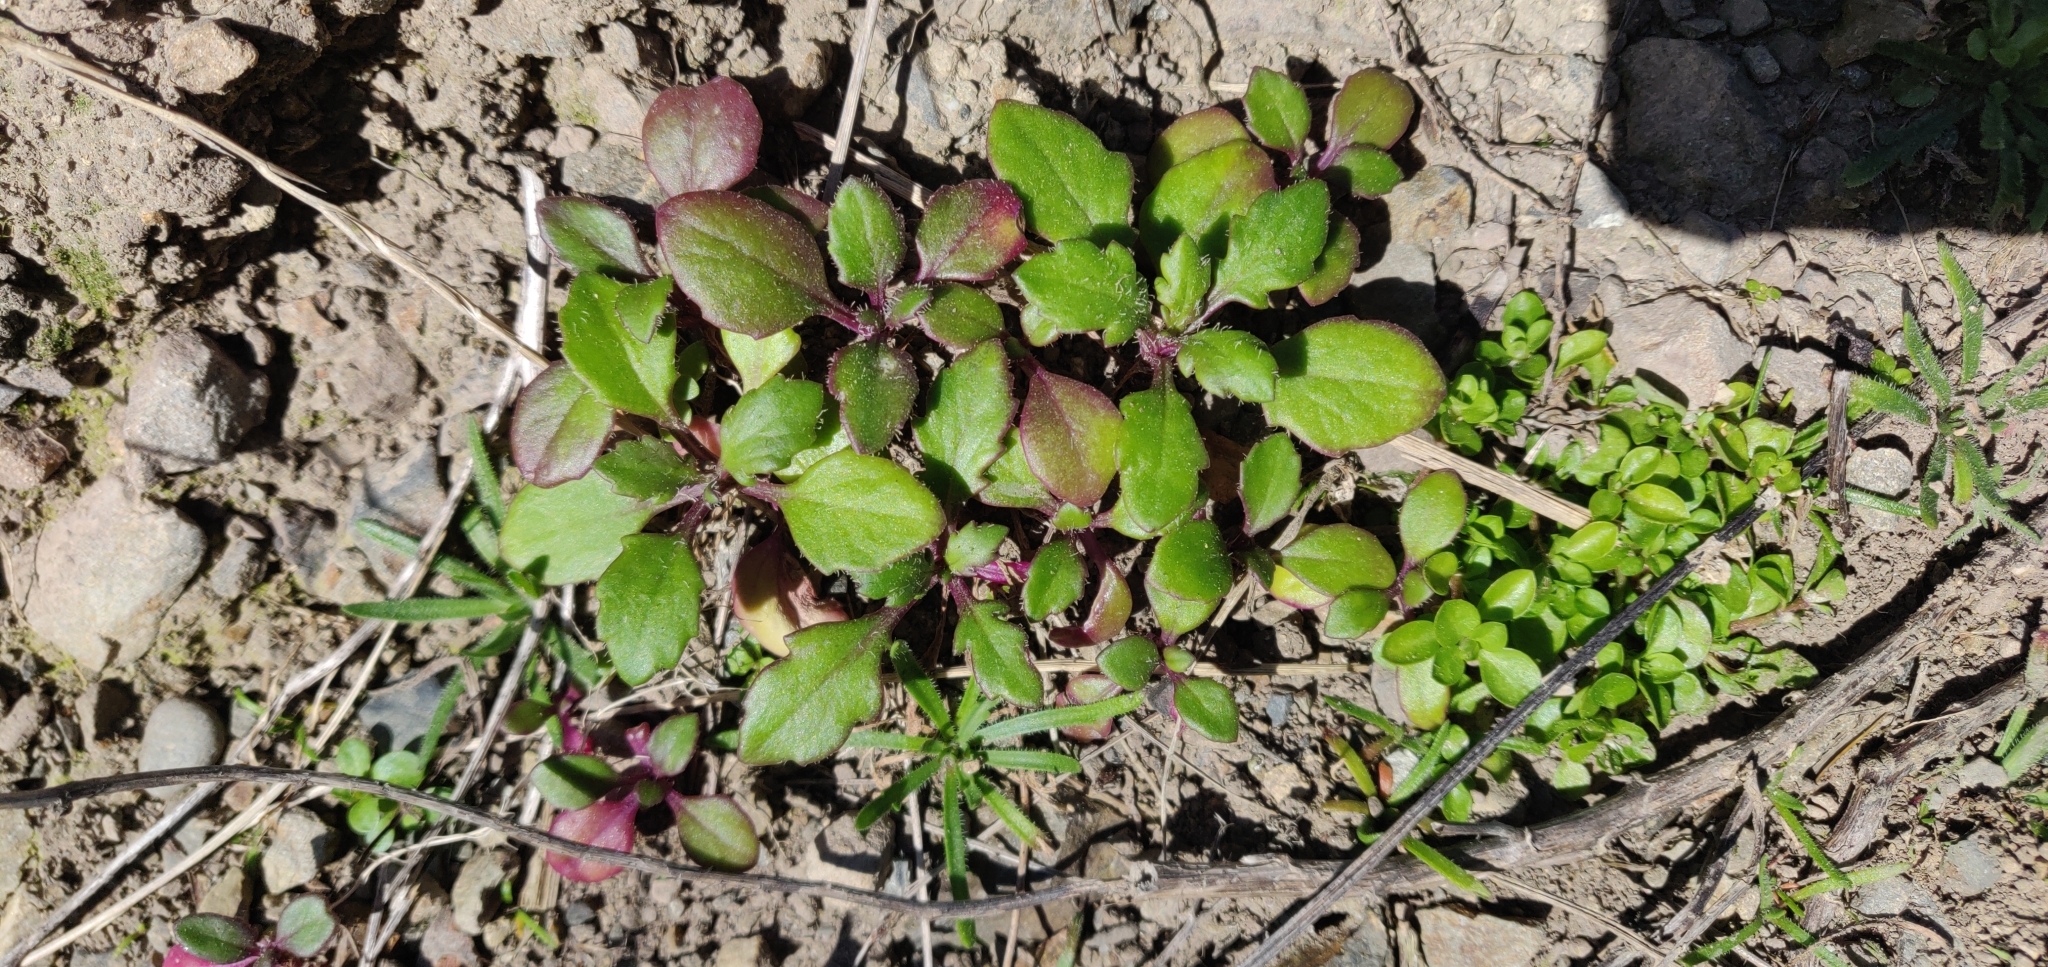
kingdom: Plantae
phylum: Tracheophyta
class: Magnoliopsida
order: Asterales
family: Asteraceae
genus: Senecio
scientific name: Senecio lautus
